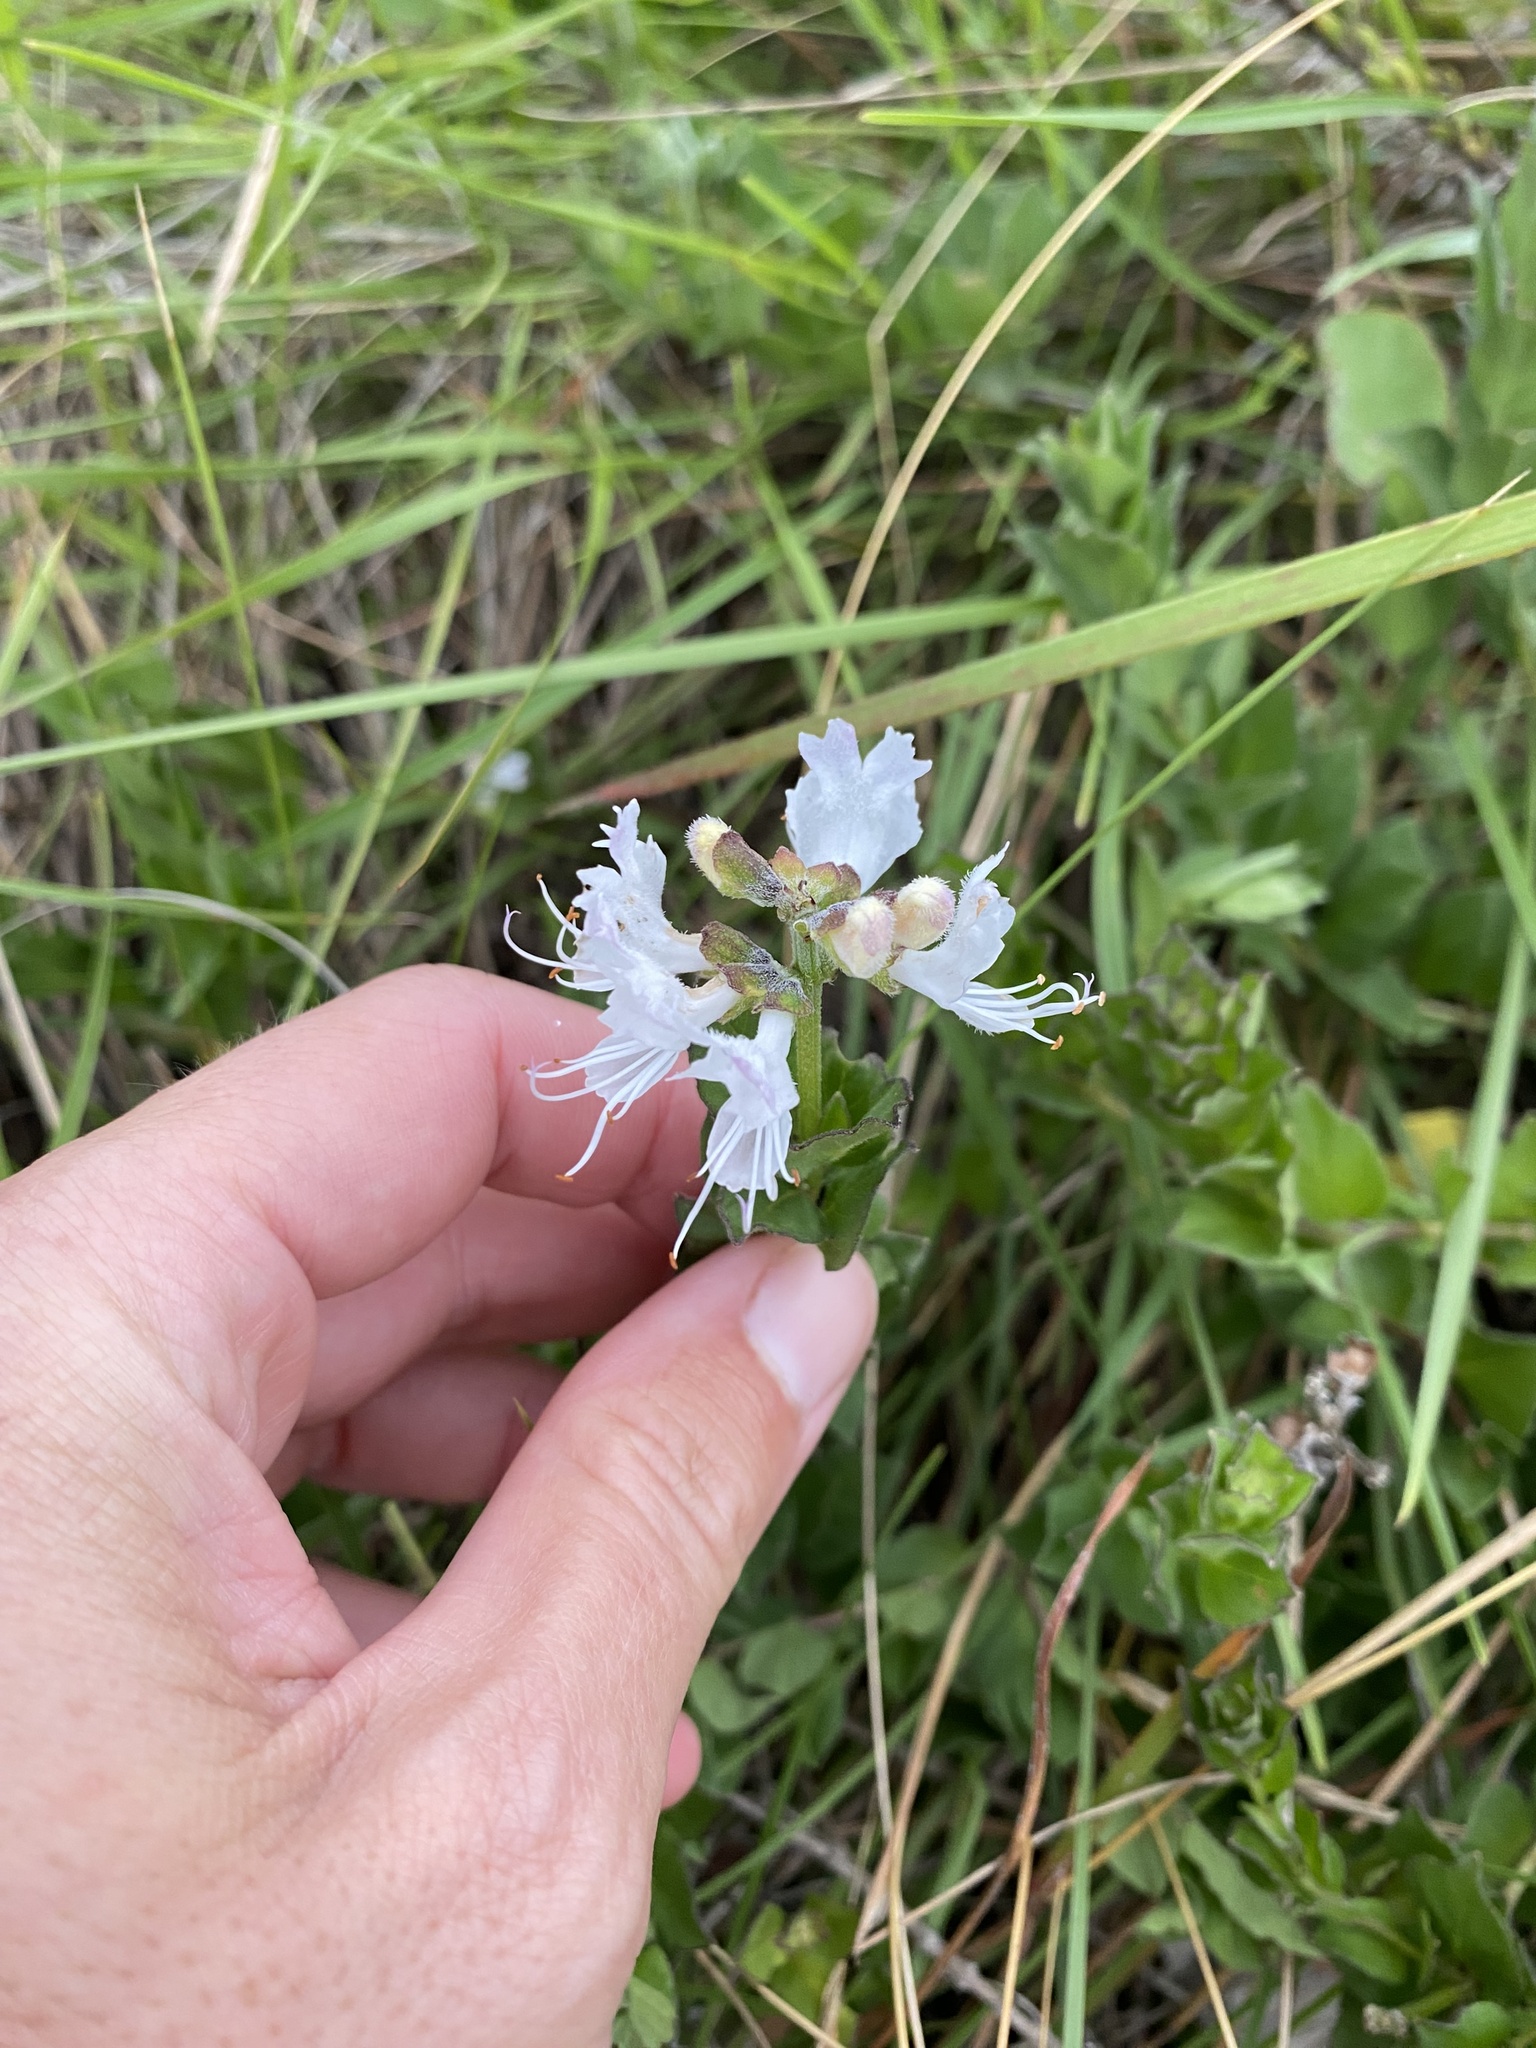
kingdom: Plantae
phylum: Tracheophyta
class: Magnoliopsida
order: Lamiales
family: Lamiaceae
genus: Ocimum
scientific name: Ocimum obovatum
